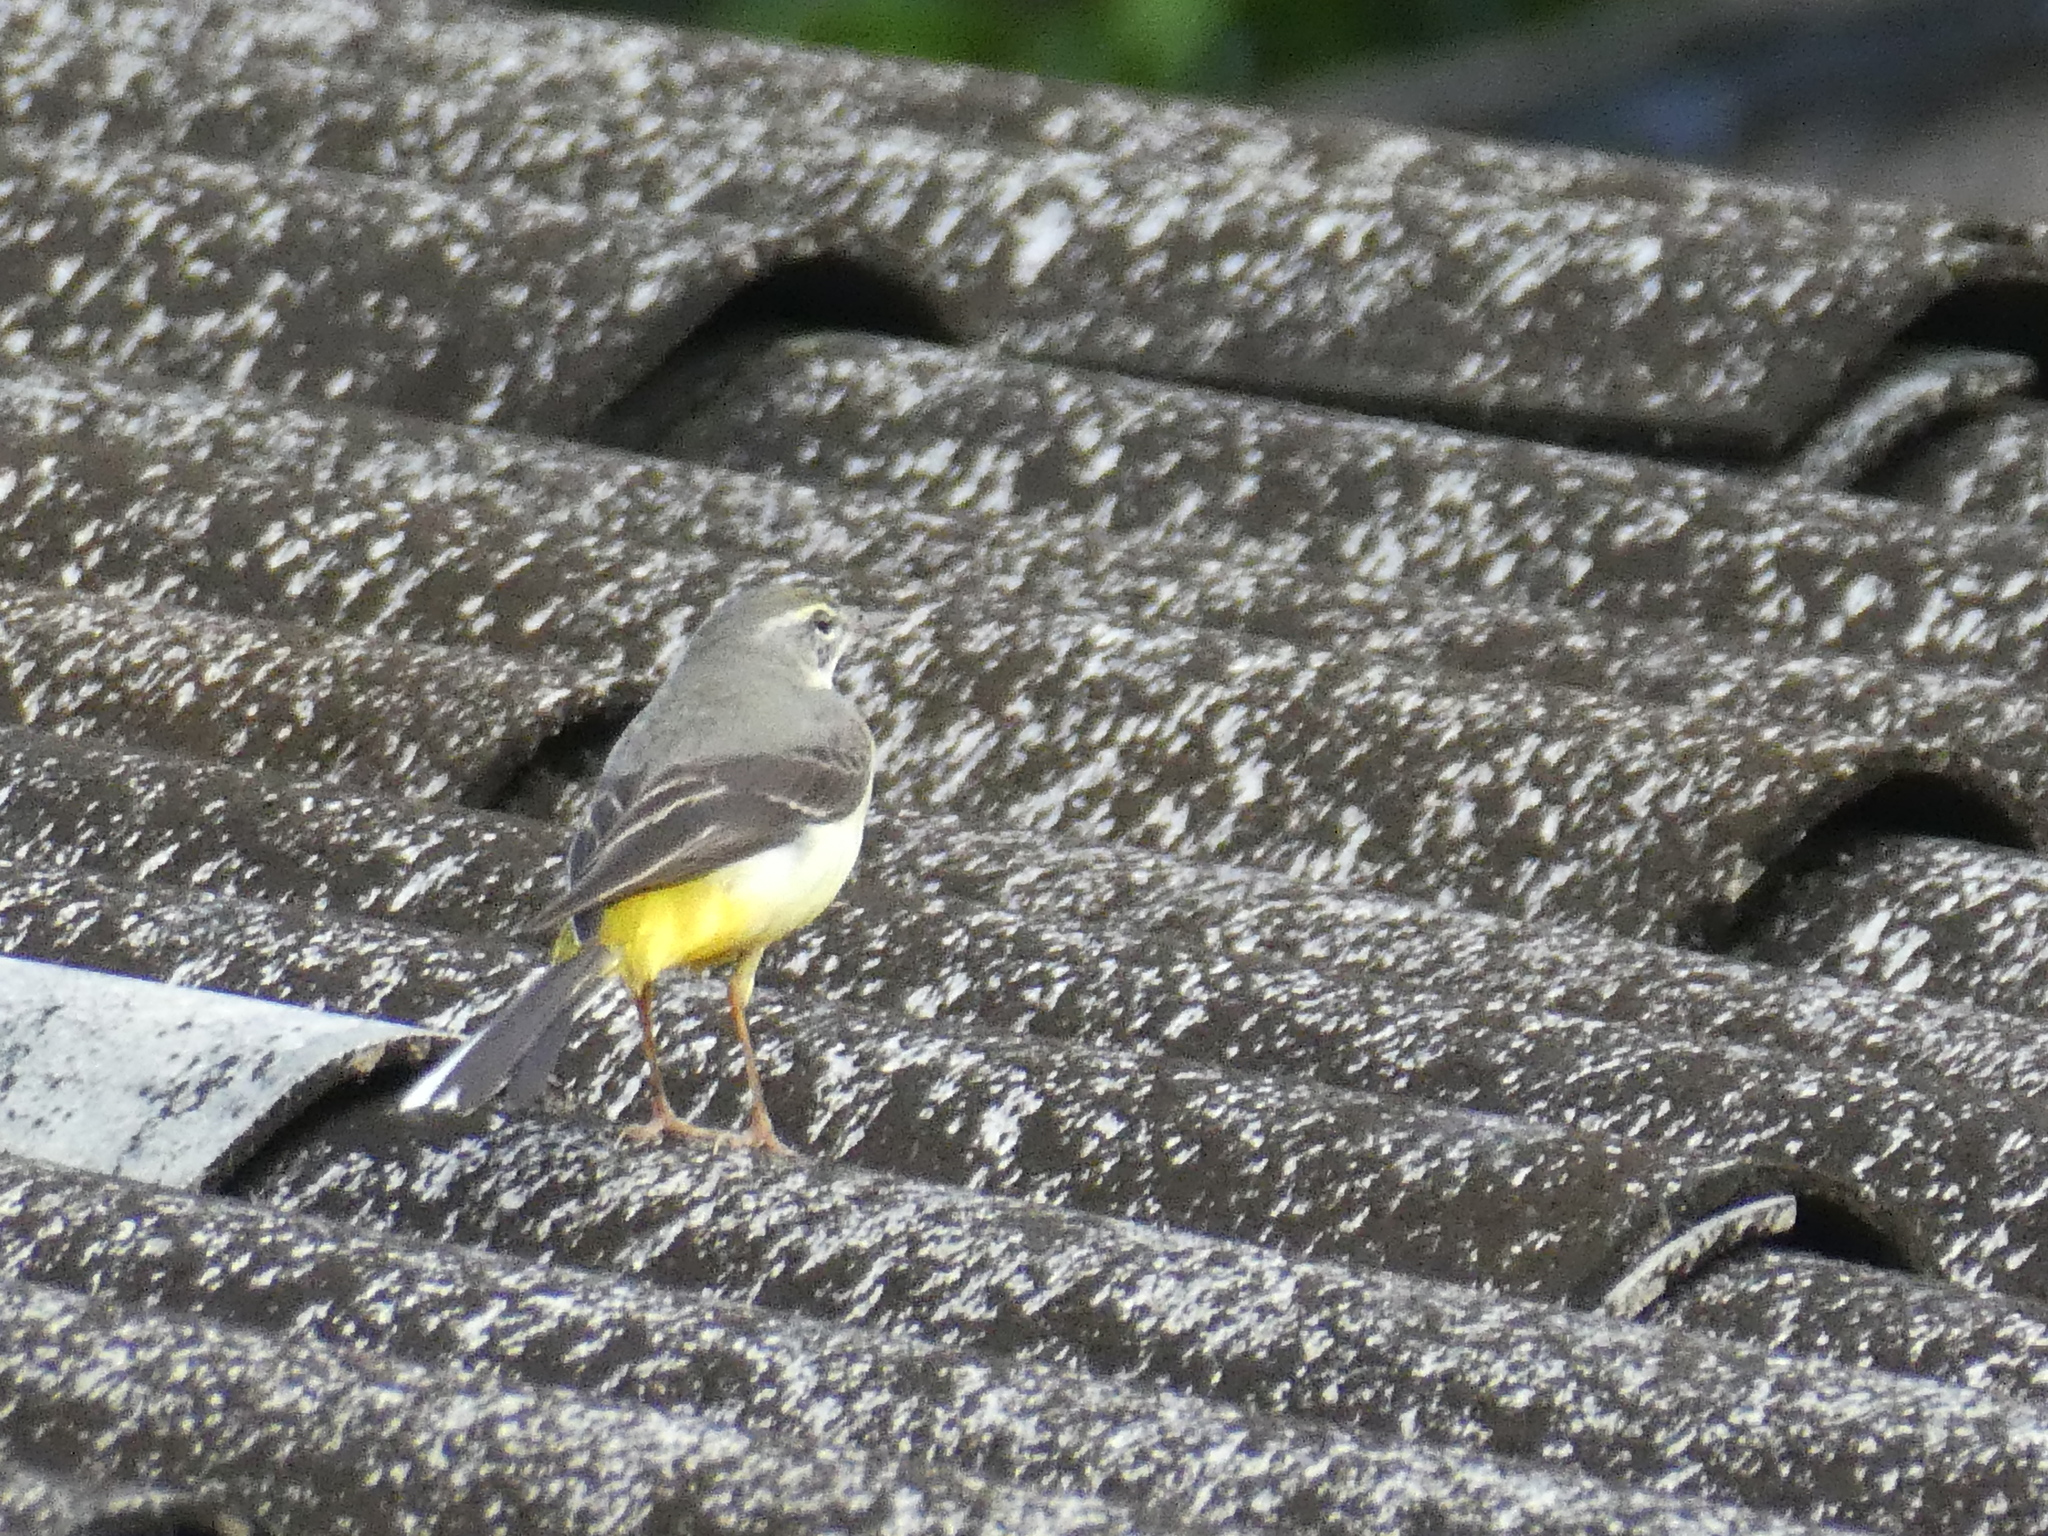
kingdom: Animalia
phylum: Chordata
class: Aves
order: Passeriformes
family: Motacillidae
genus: Motacilla
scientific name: Motacilla cinerea
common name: Grey wagtail
